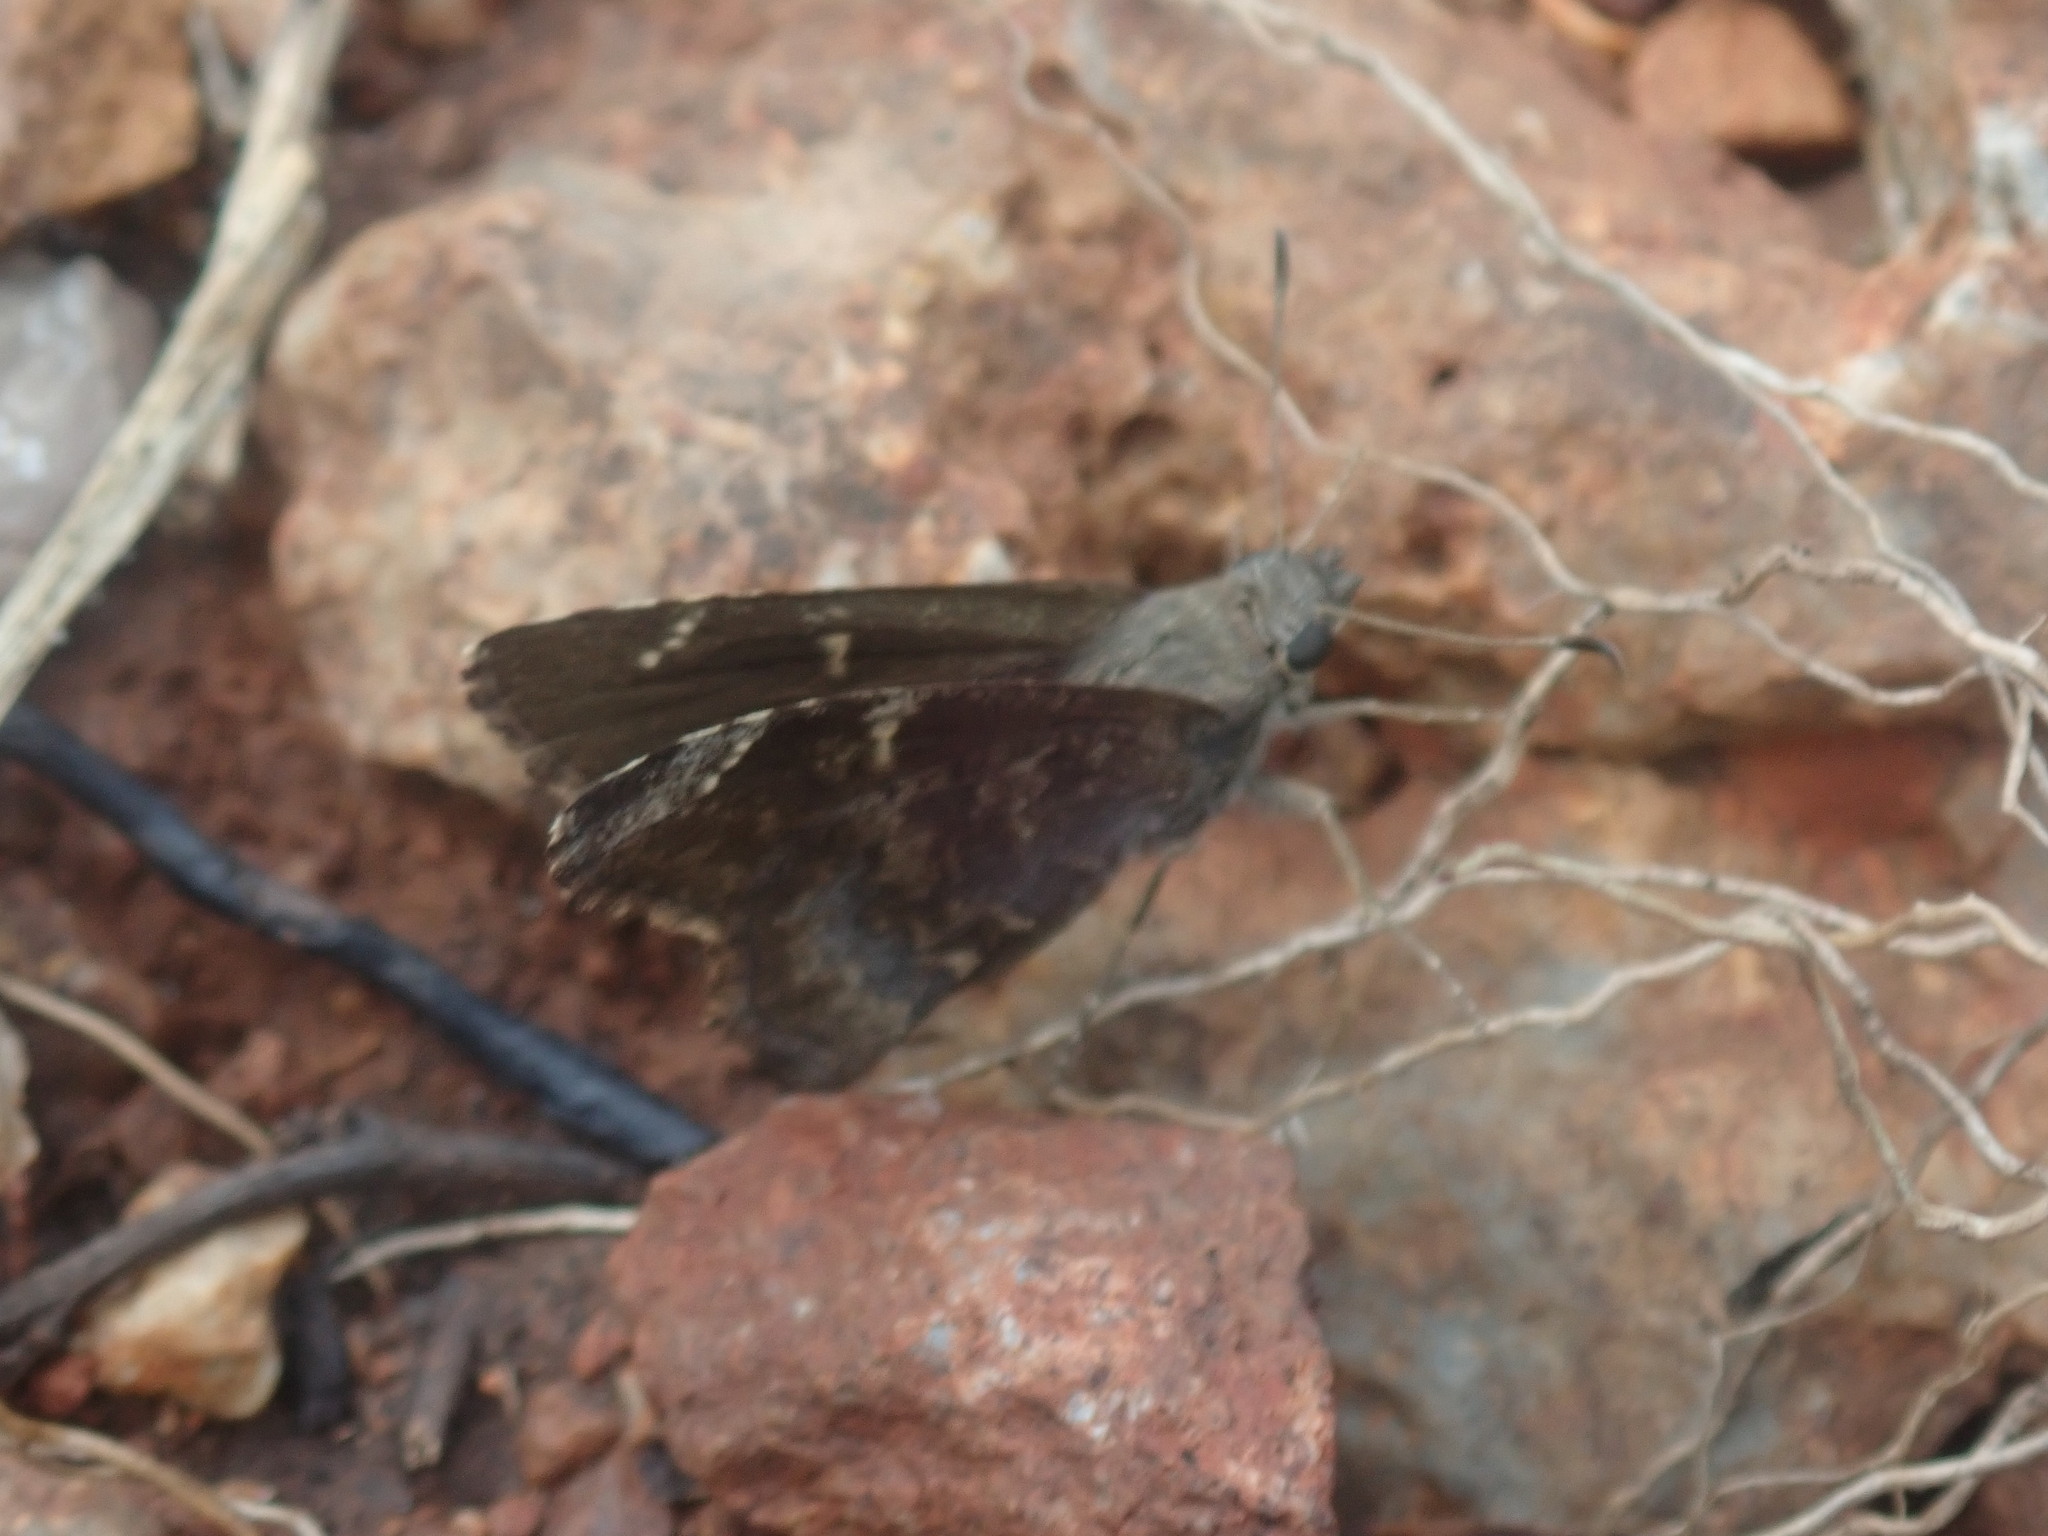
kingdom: Animalia
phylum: Arthropoda
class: Insecta
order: Lepidoptera
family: Hesperiidae
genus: Caicella
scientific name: Caicella calchas
